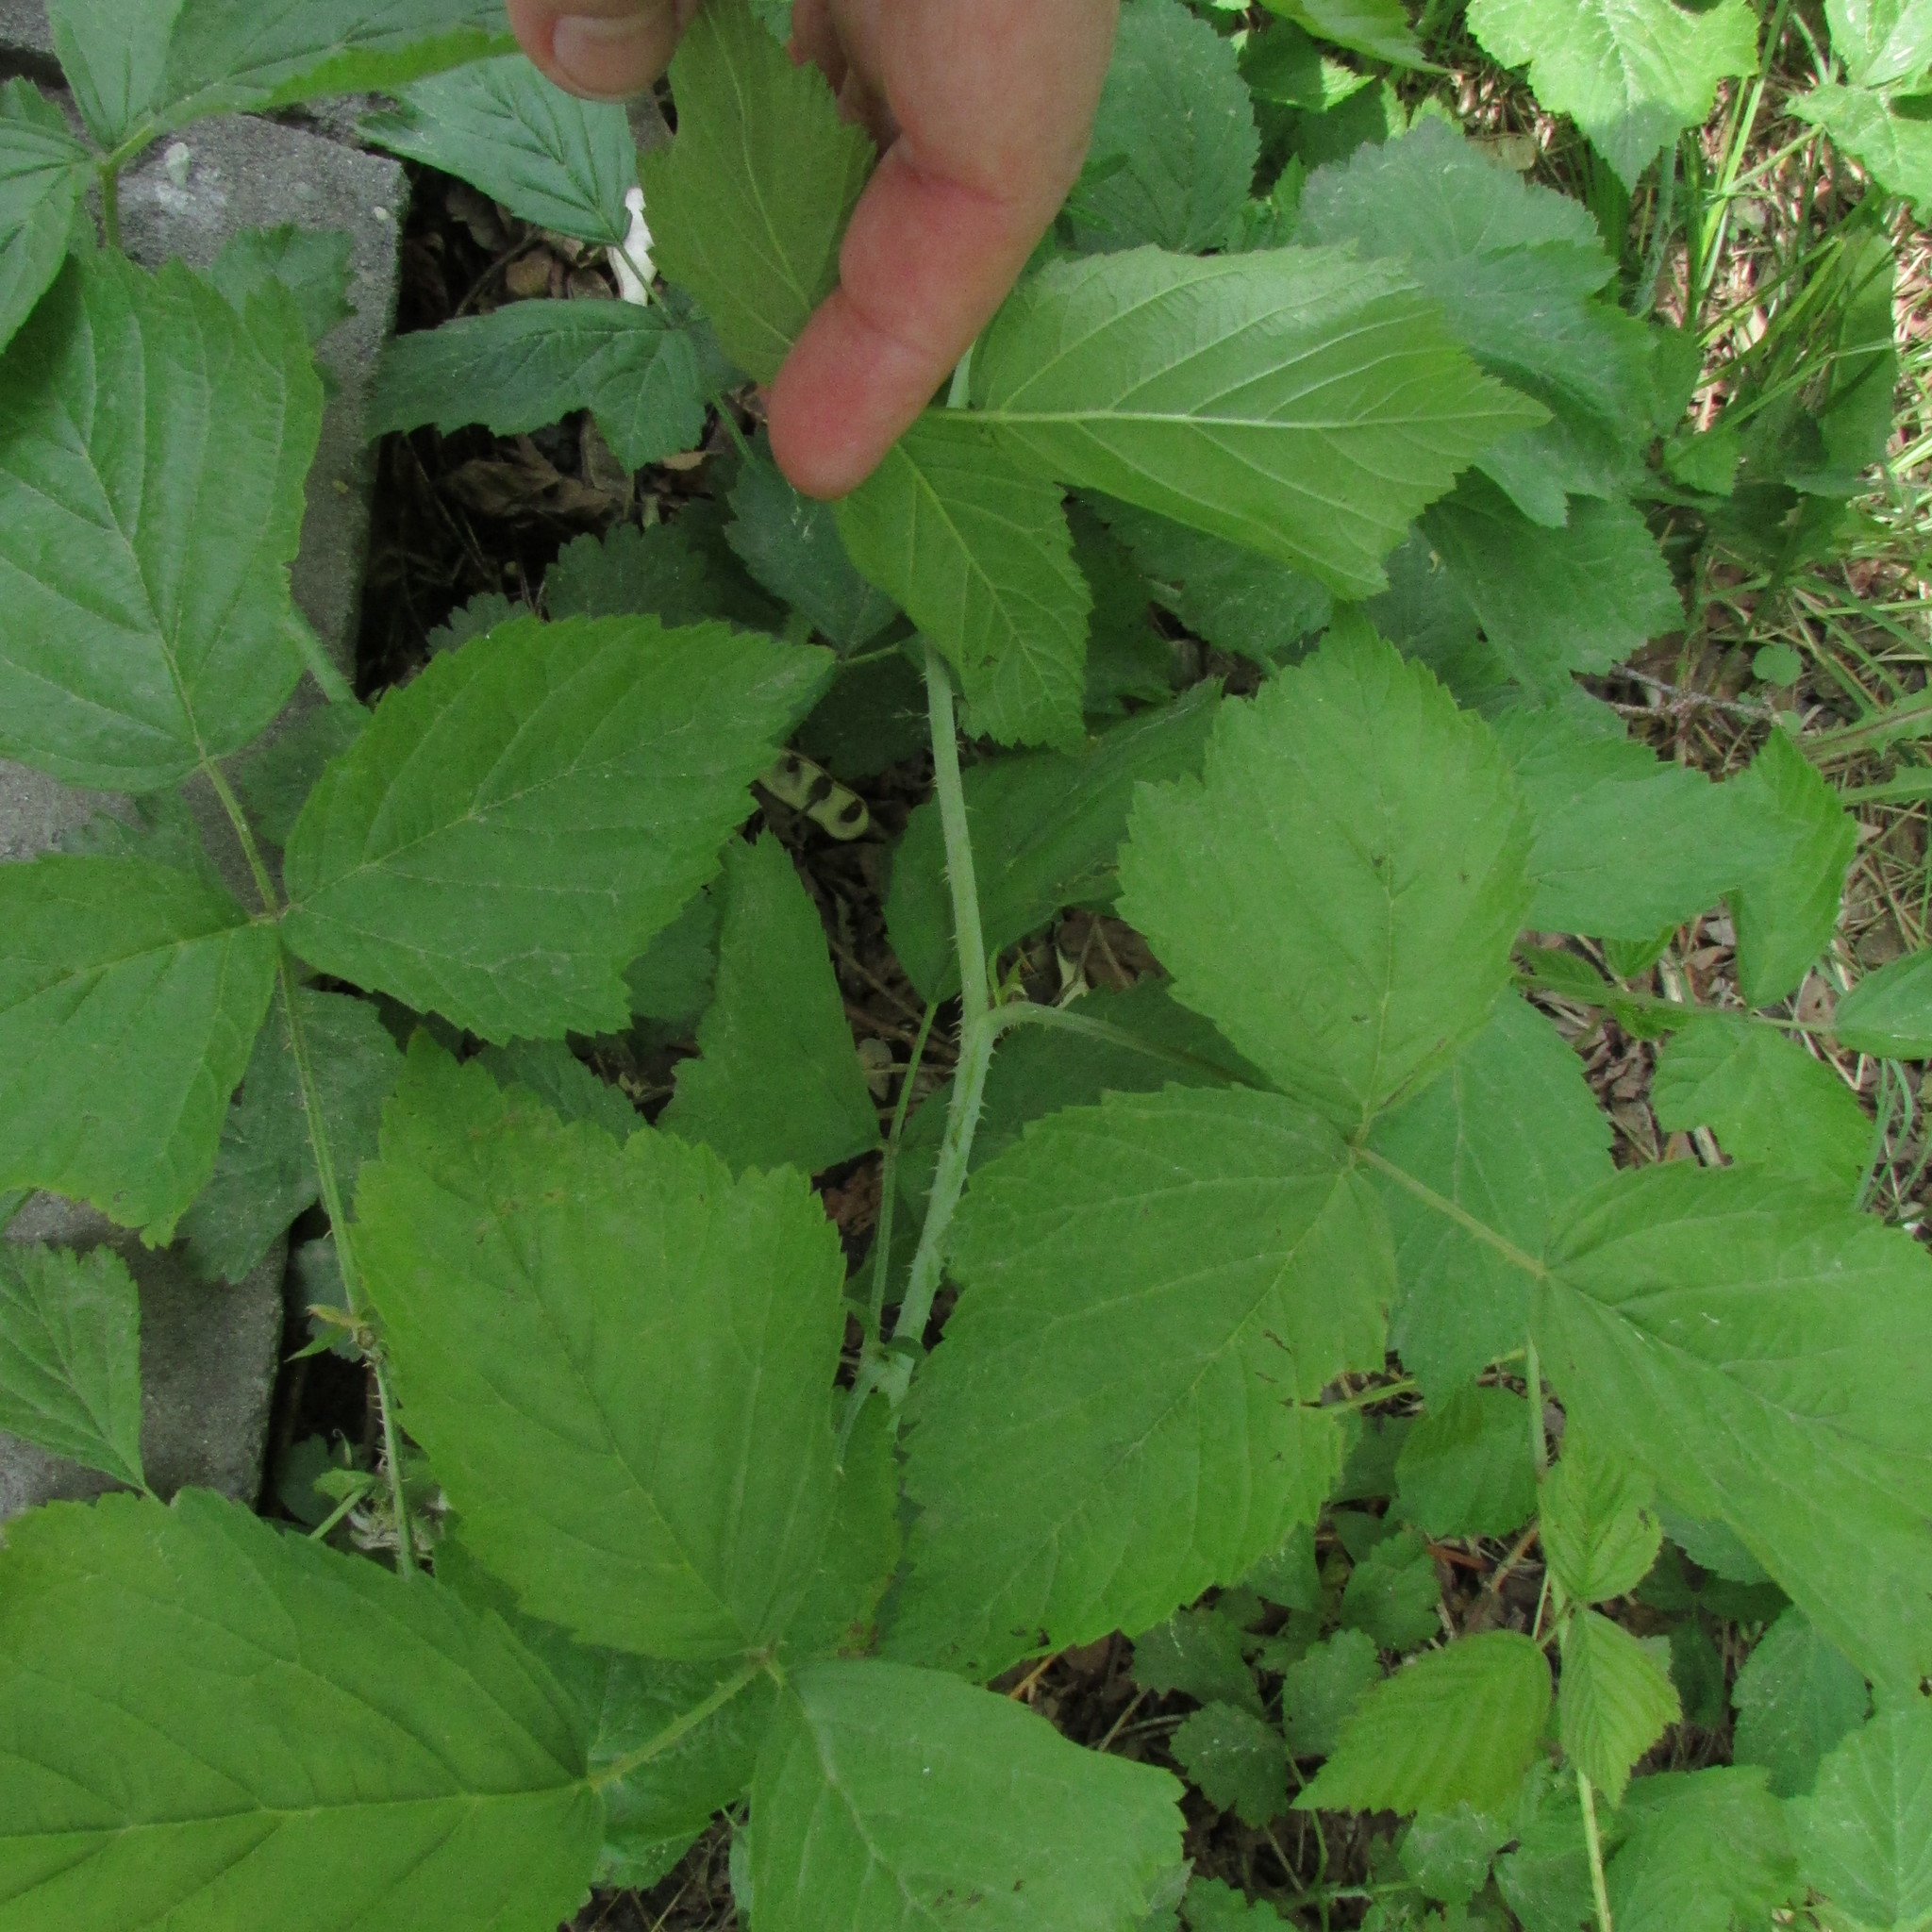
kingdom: Plantae
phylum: Tracheophyta
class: Magnoliopsida
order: Rosales
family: Rosaceae
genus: Rubus
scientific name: Rubus caesius
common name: Dewberry
